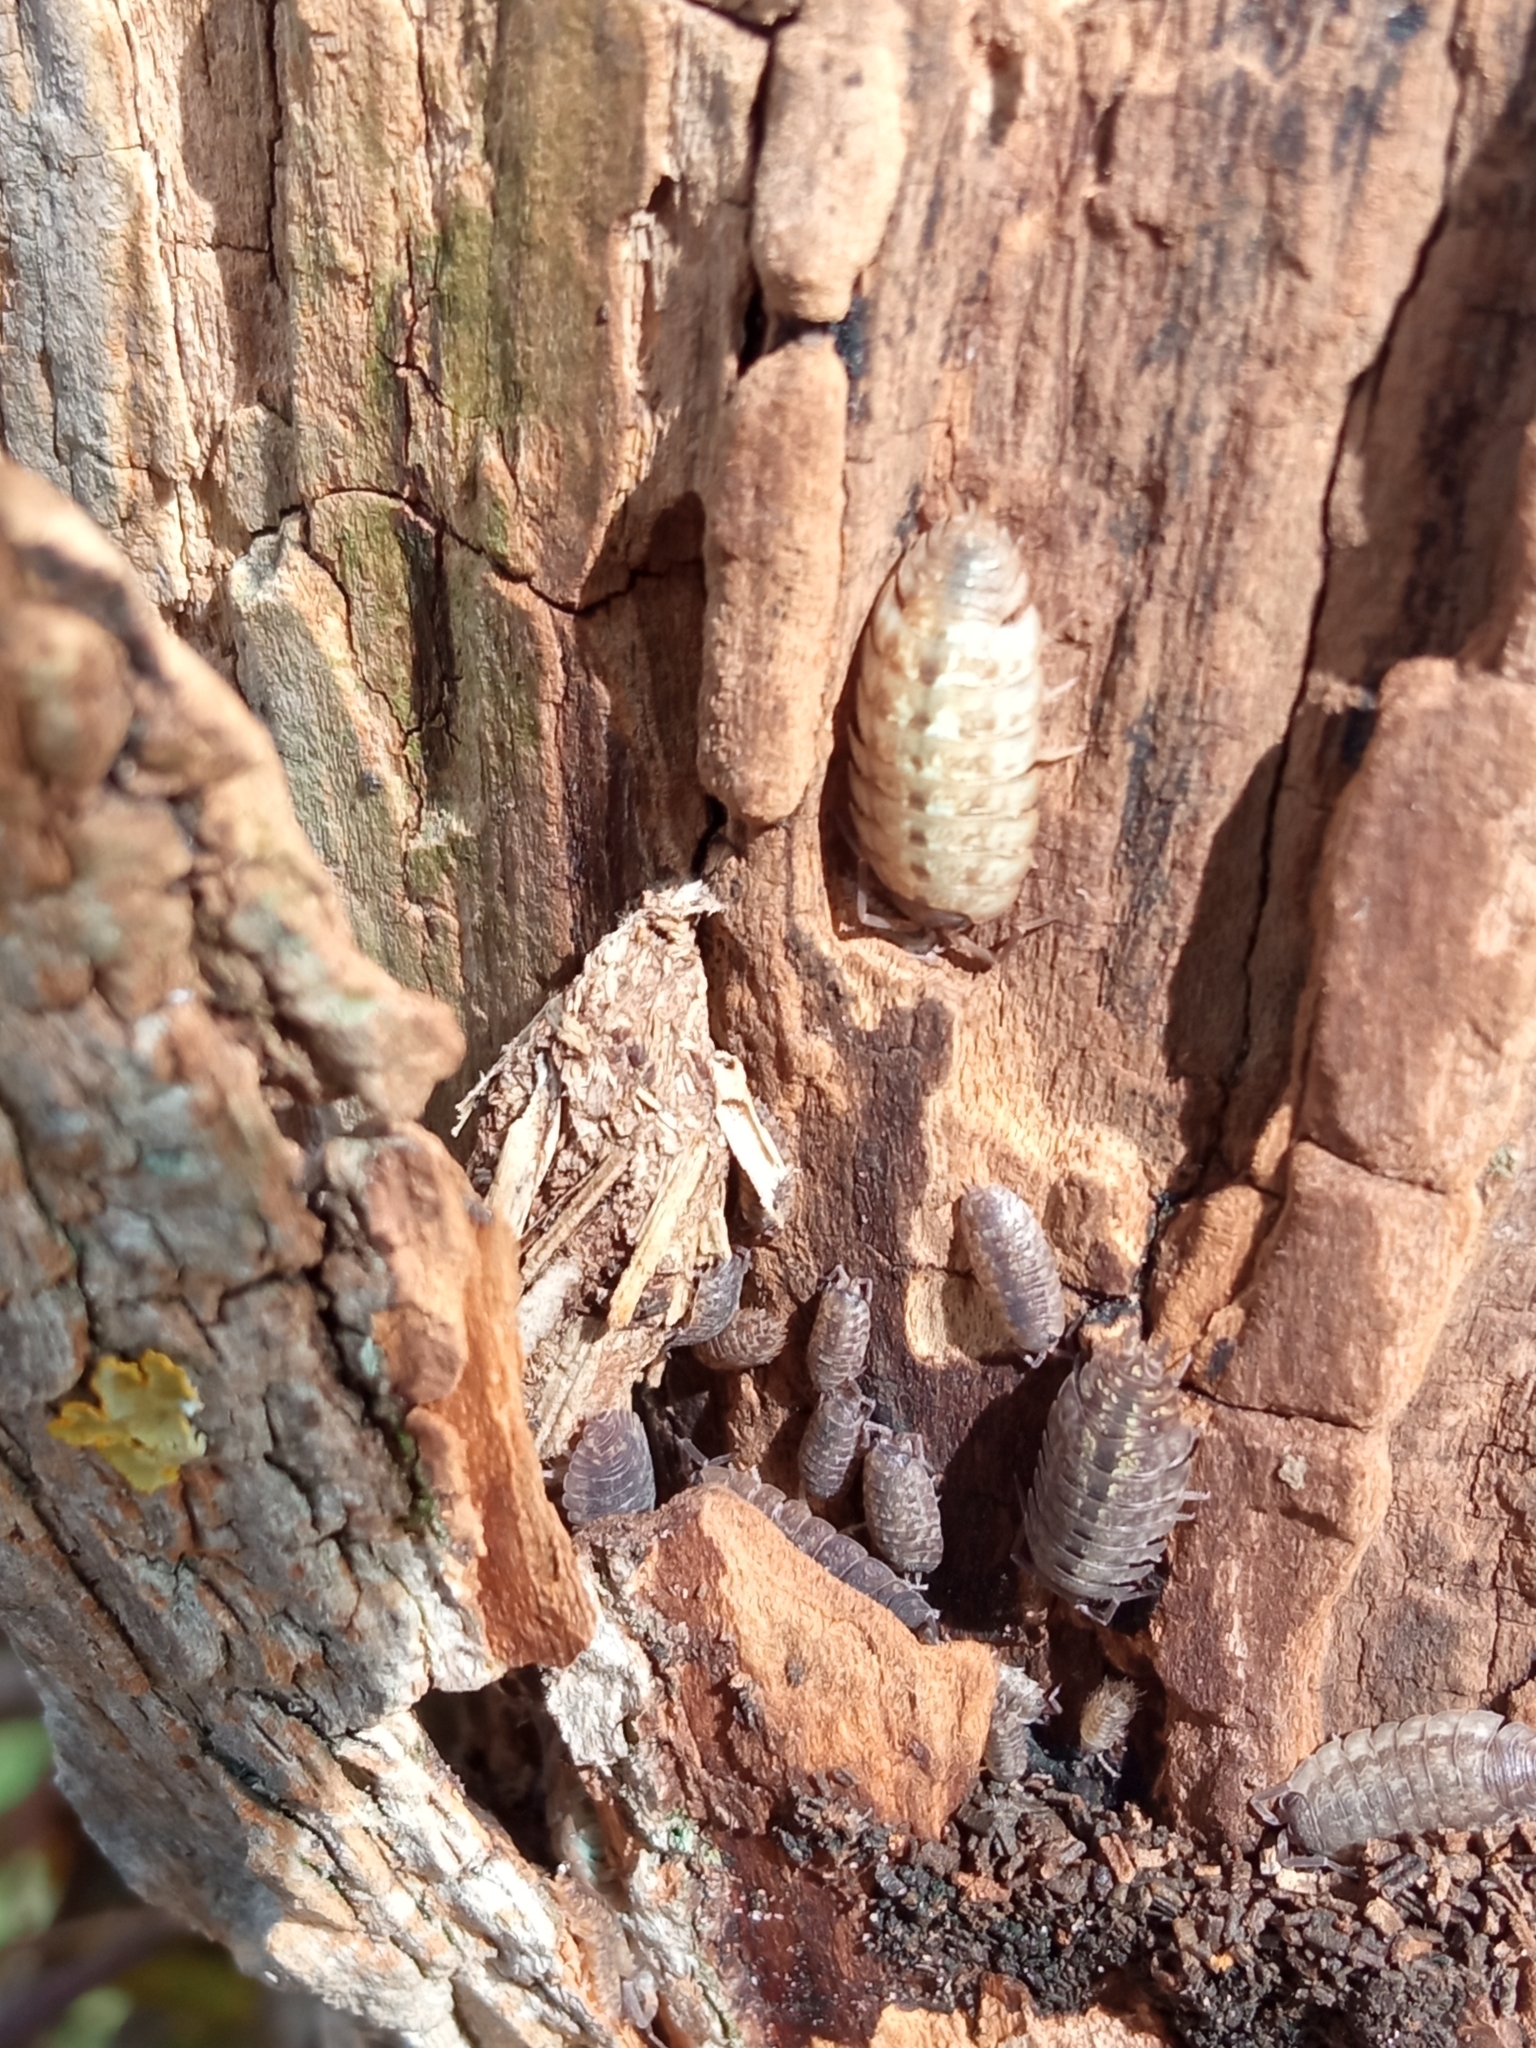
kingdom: Animalia
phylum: Arthropoda
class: Malacostraca
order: Isopoda
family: Porcellionidae
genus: Porcellio
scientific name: Porcellio monticola
